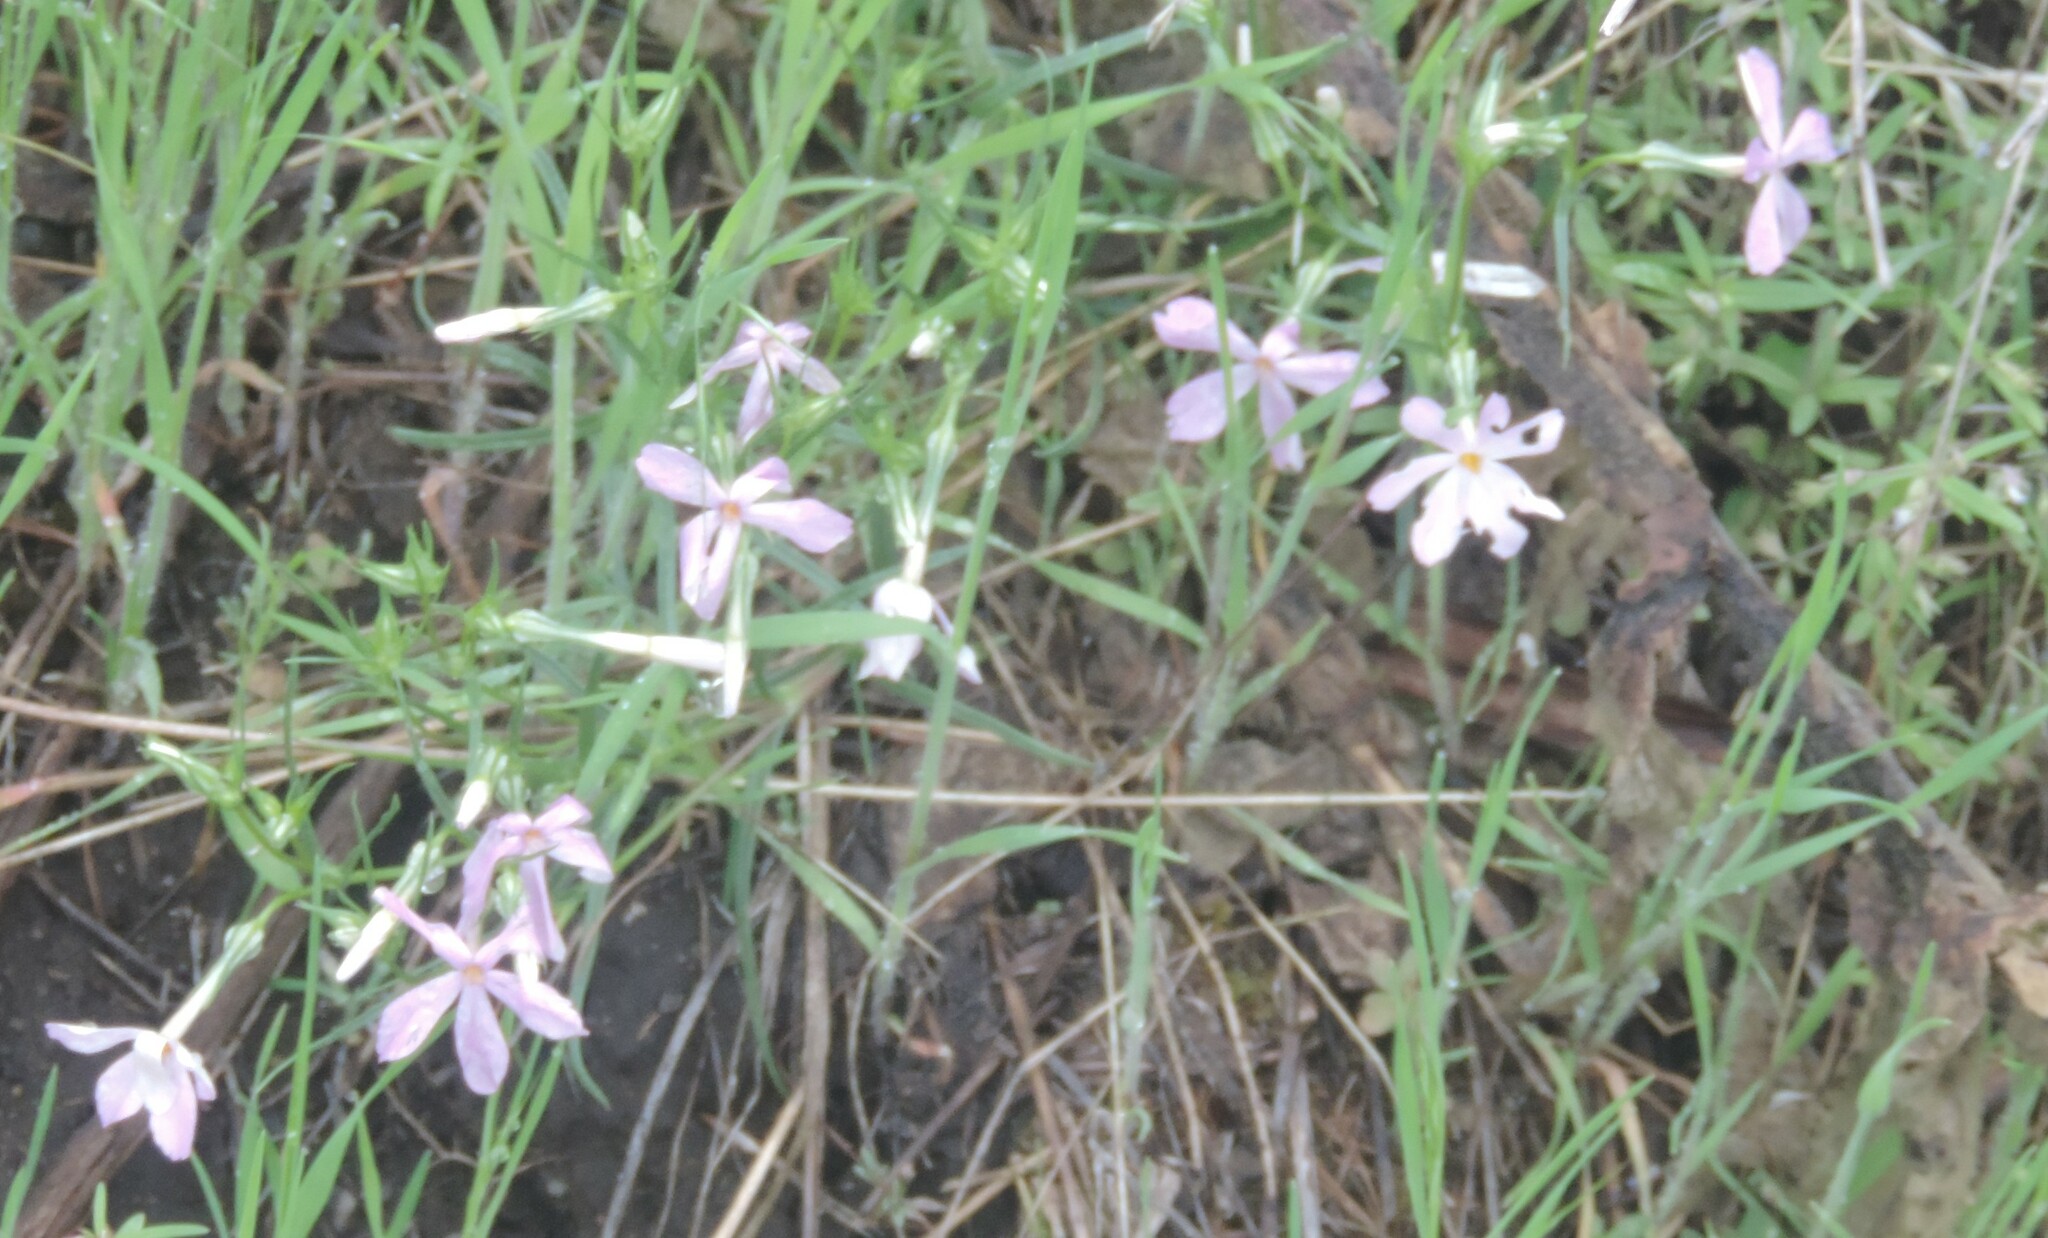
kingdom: Plantae
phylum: Tracheophyta
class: Magnoliopsida
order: Ericales
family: Polemoniaceae
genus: Phlox
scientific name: Phlox longifolia
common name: Longleaf phlox
